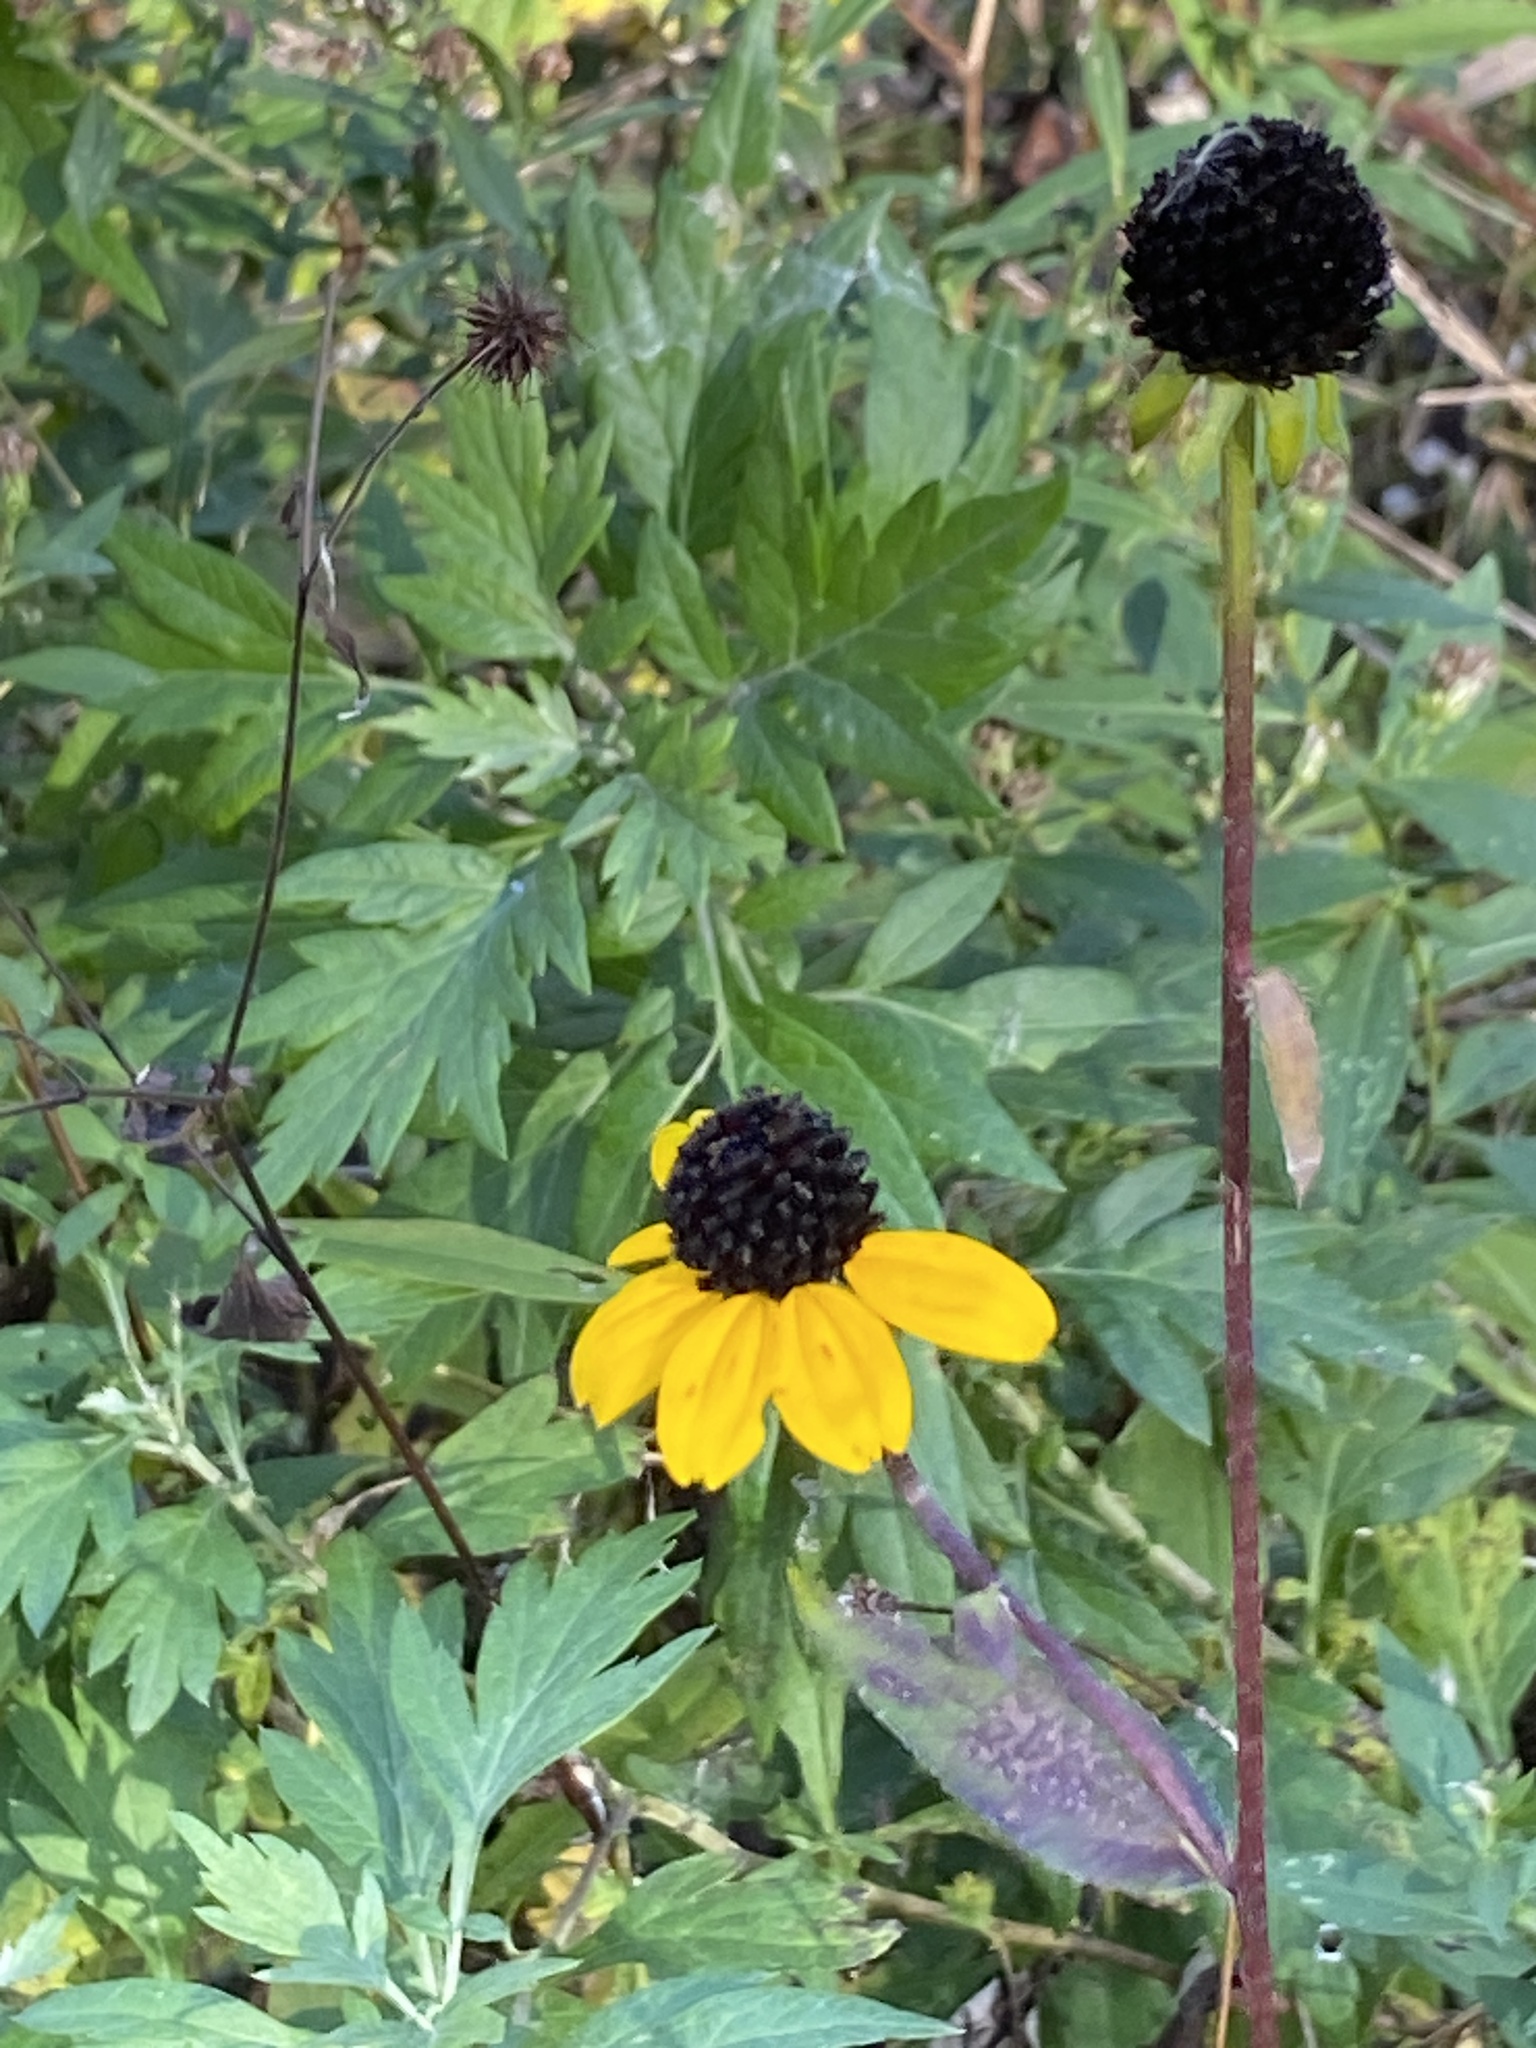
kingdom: Plantae
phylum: Tracheophyta
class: Magnoliopsida
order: Asterales
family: Asteraceae
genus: Rudbeckia
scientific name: Rudbeckia triloba
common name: Thin-leaved coneflower
